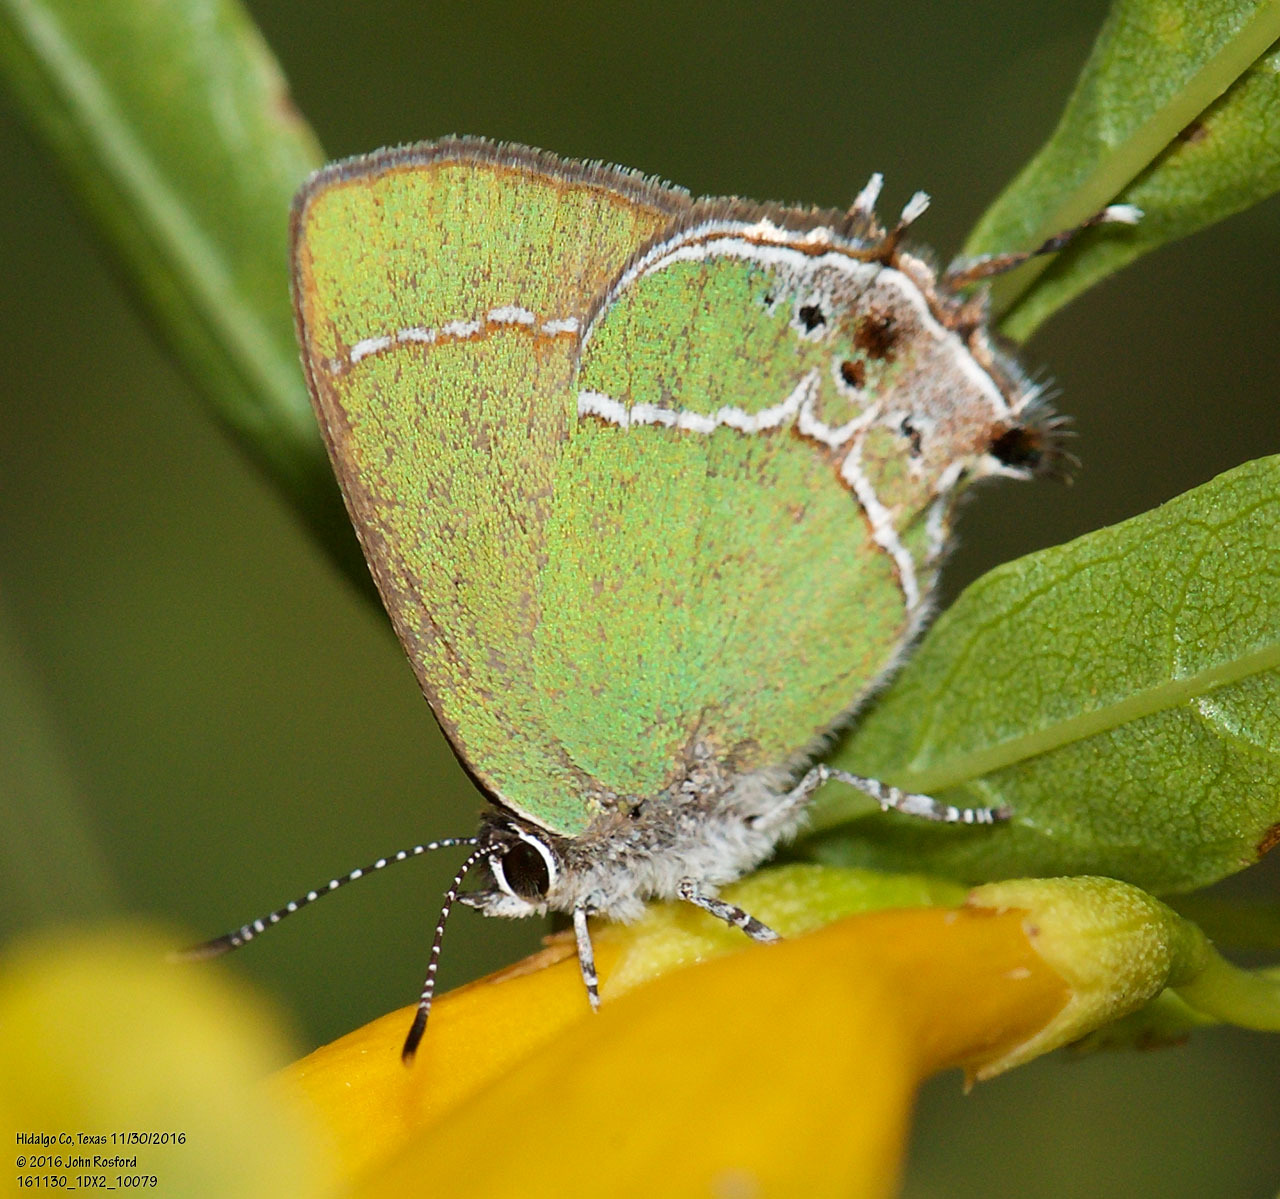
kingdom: Animalia
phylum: Arthropoda
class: Insecta
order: Lepidoptera
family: Lycaenidae
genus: Xamia
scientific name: Xamia xami
